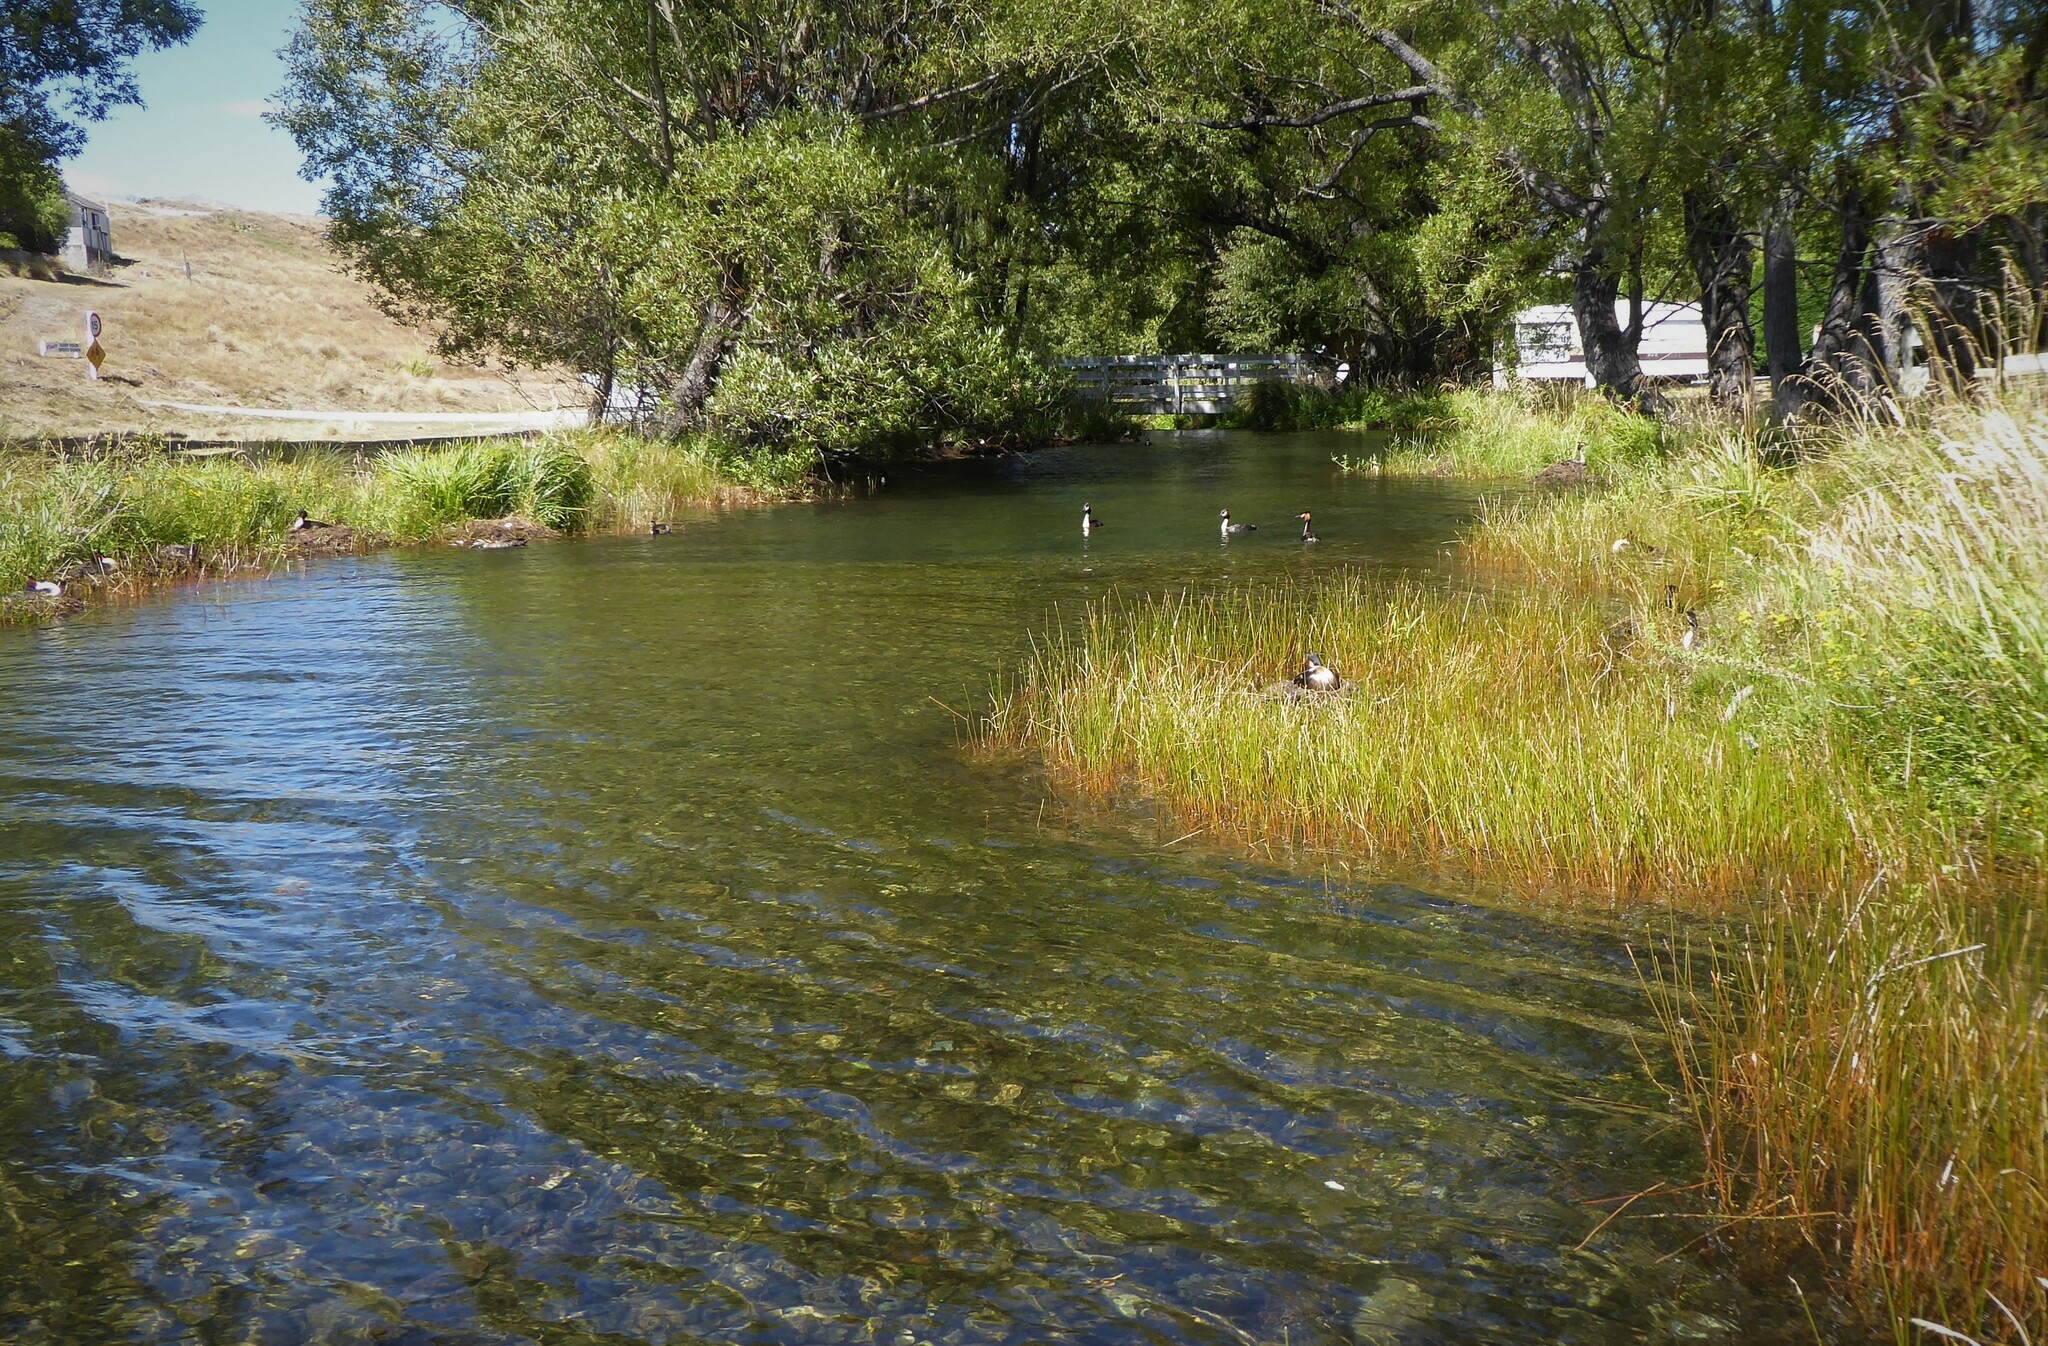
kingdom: Animalia
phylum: Chordata
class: Aves
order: Podicipediformes
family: Podicipedidae
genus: Podiceps
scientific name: Podiceps cristatus
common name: Great crested grebe
